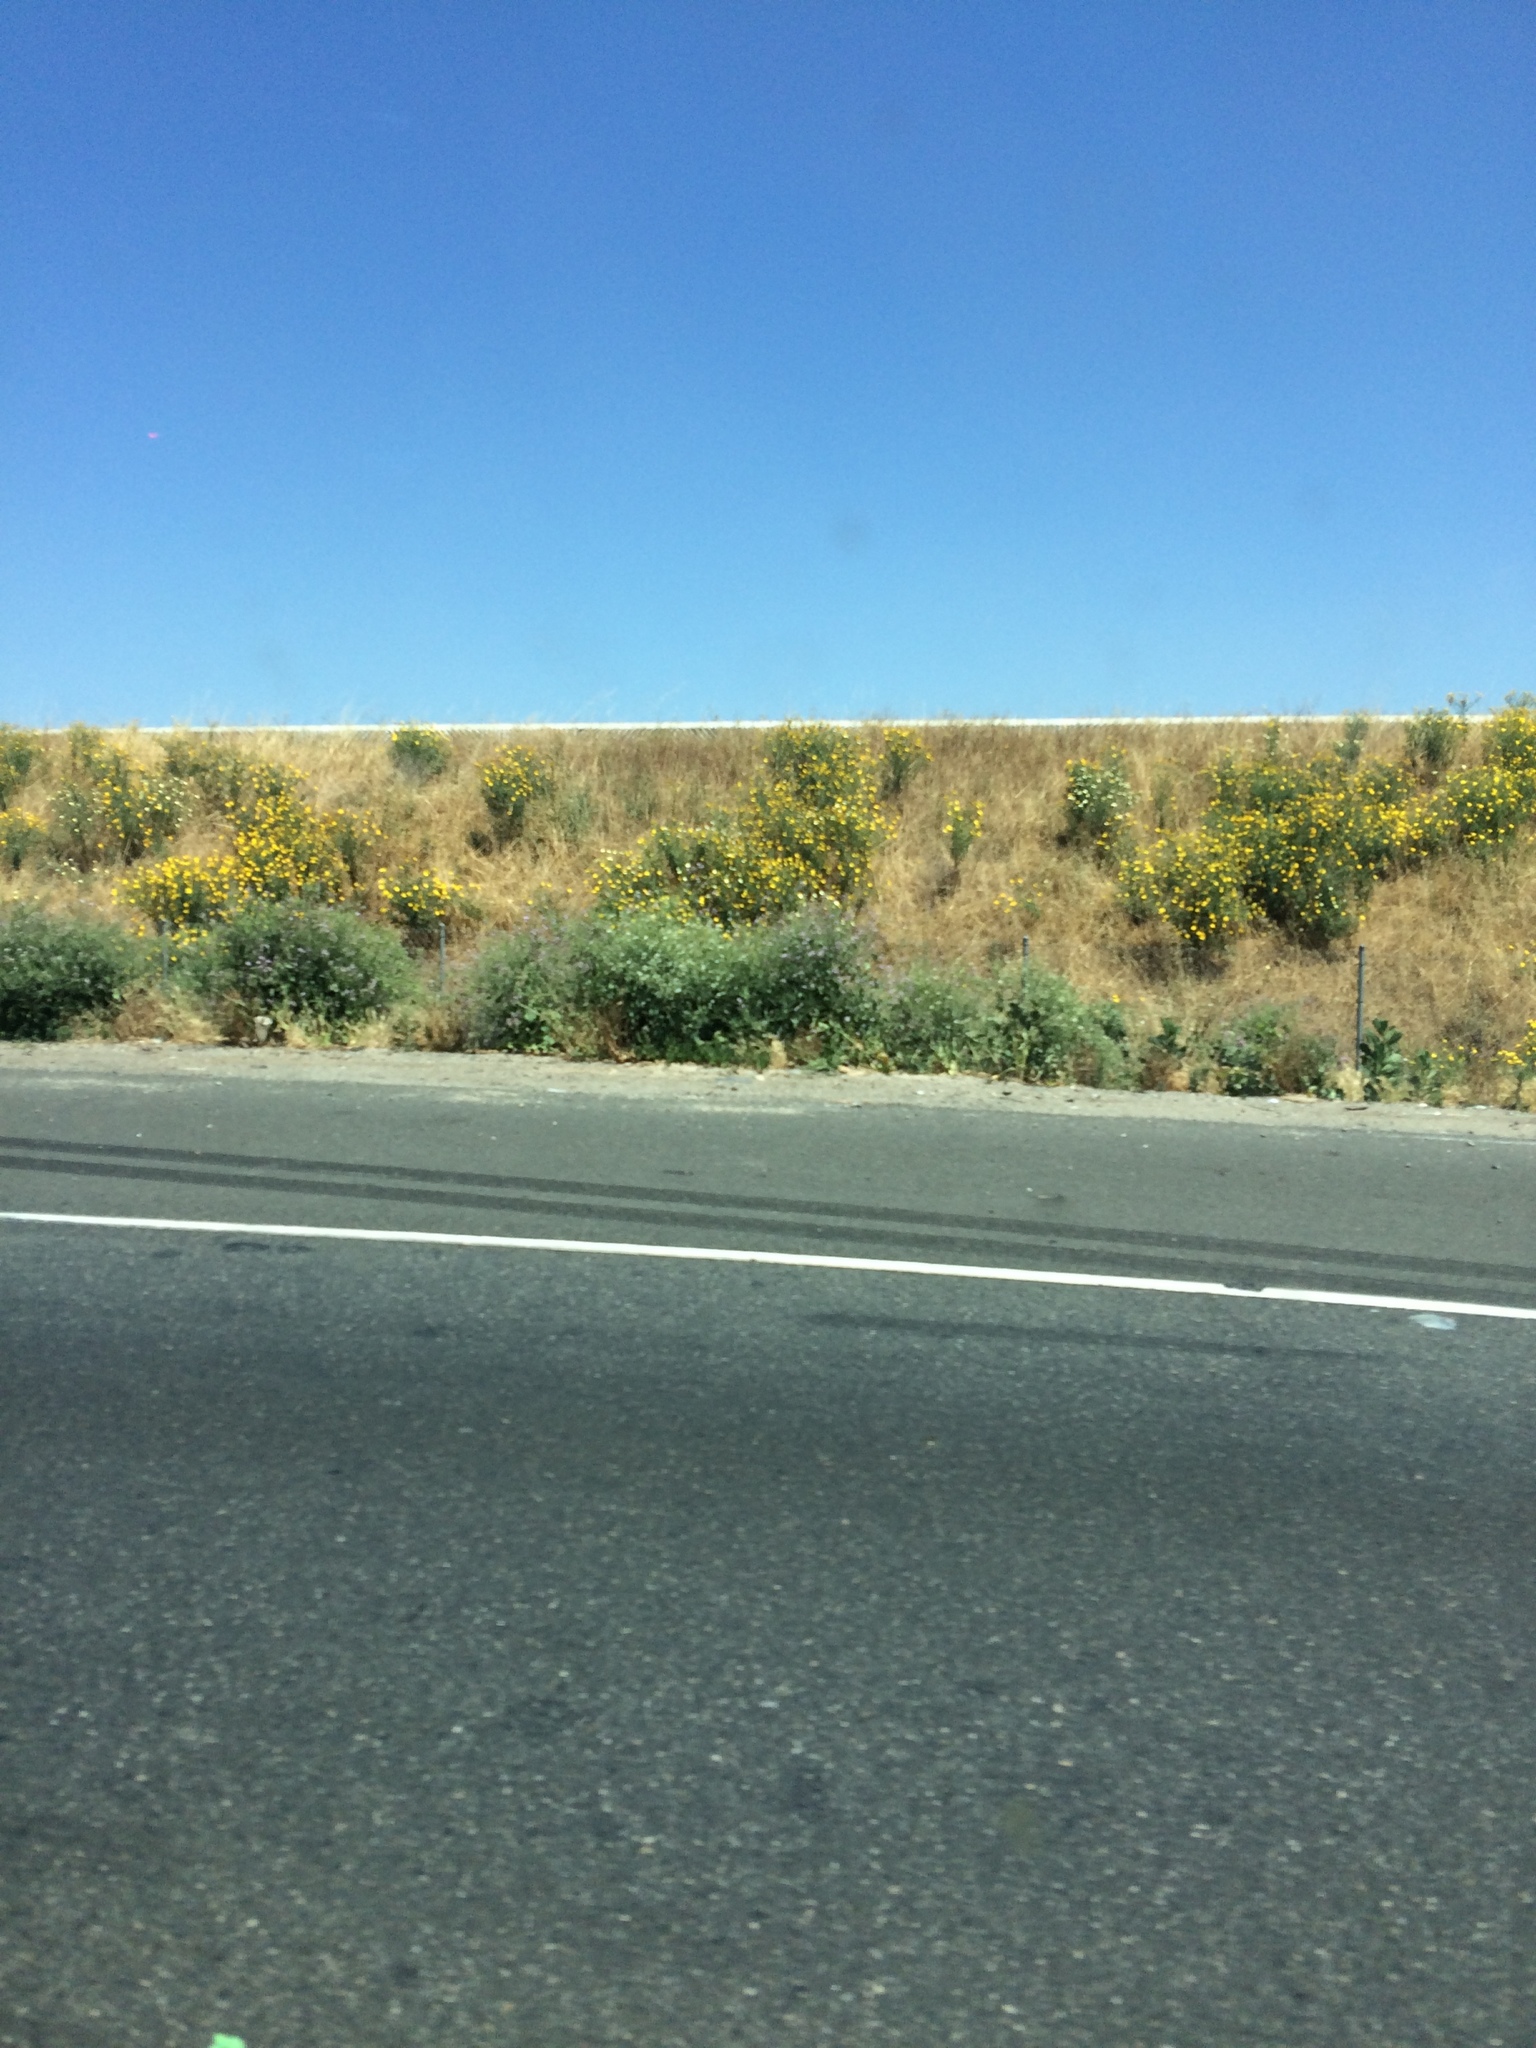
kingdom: Plantae
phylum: Tracheophyta
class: Magnoliopsida
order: Asterales
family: Asteraceae
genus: Glebionis
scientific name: Glebionis coronaria
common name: Crowndaisy
